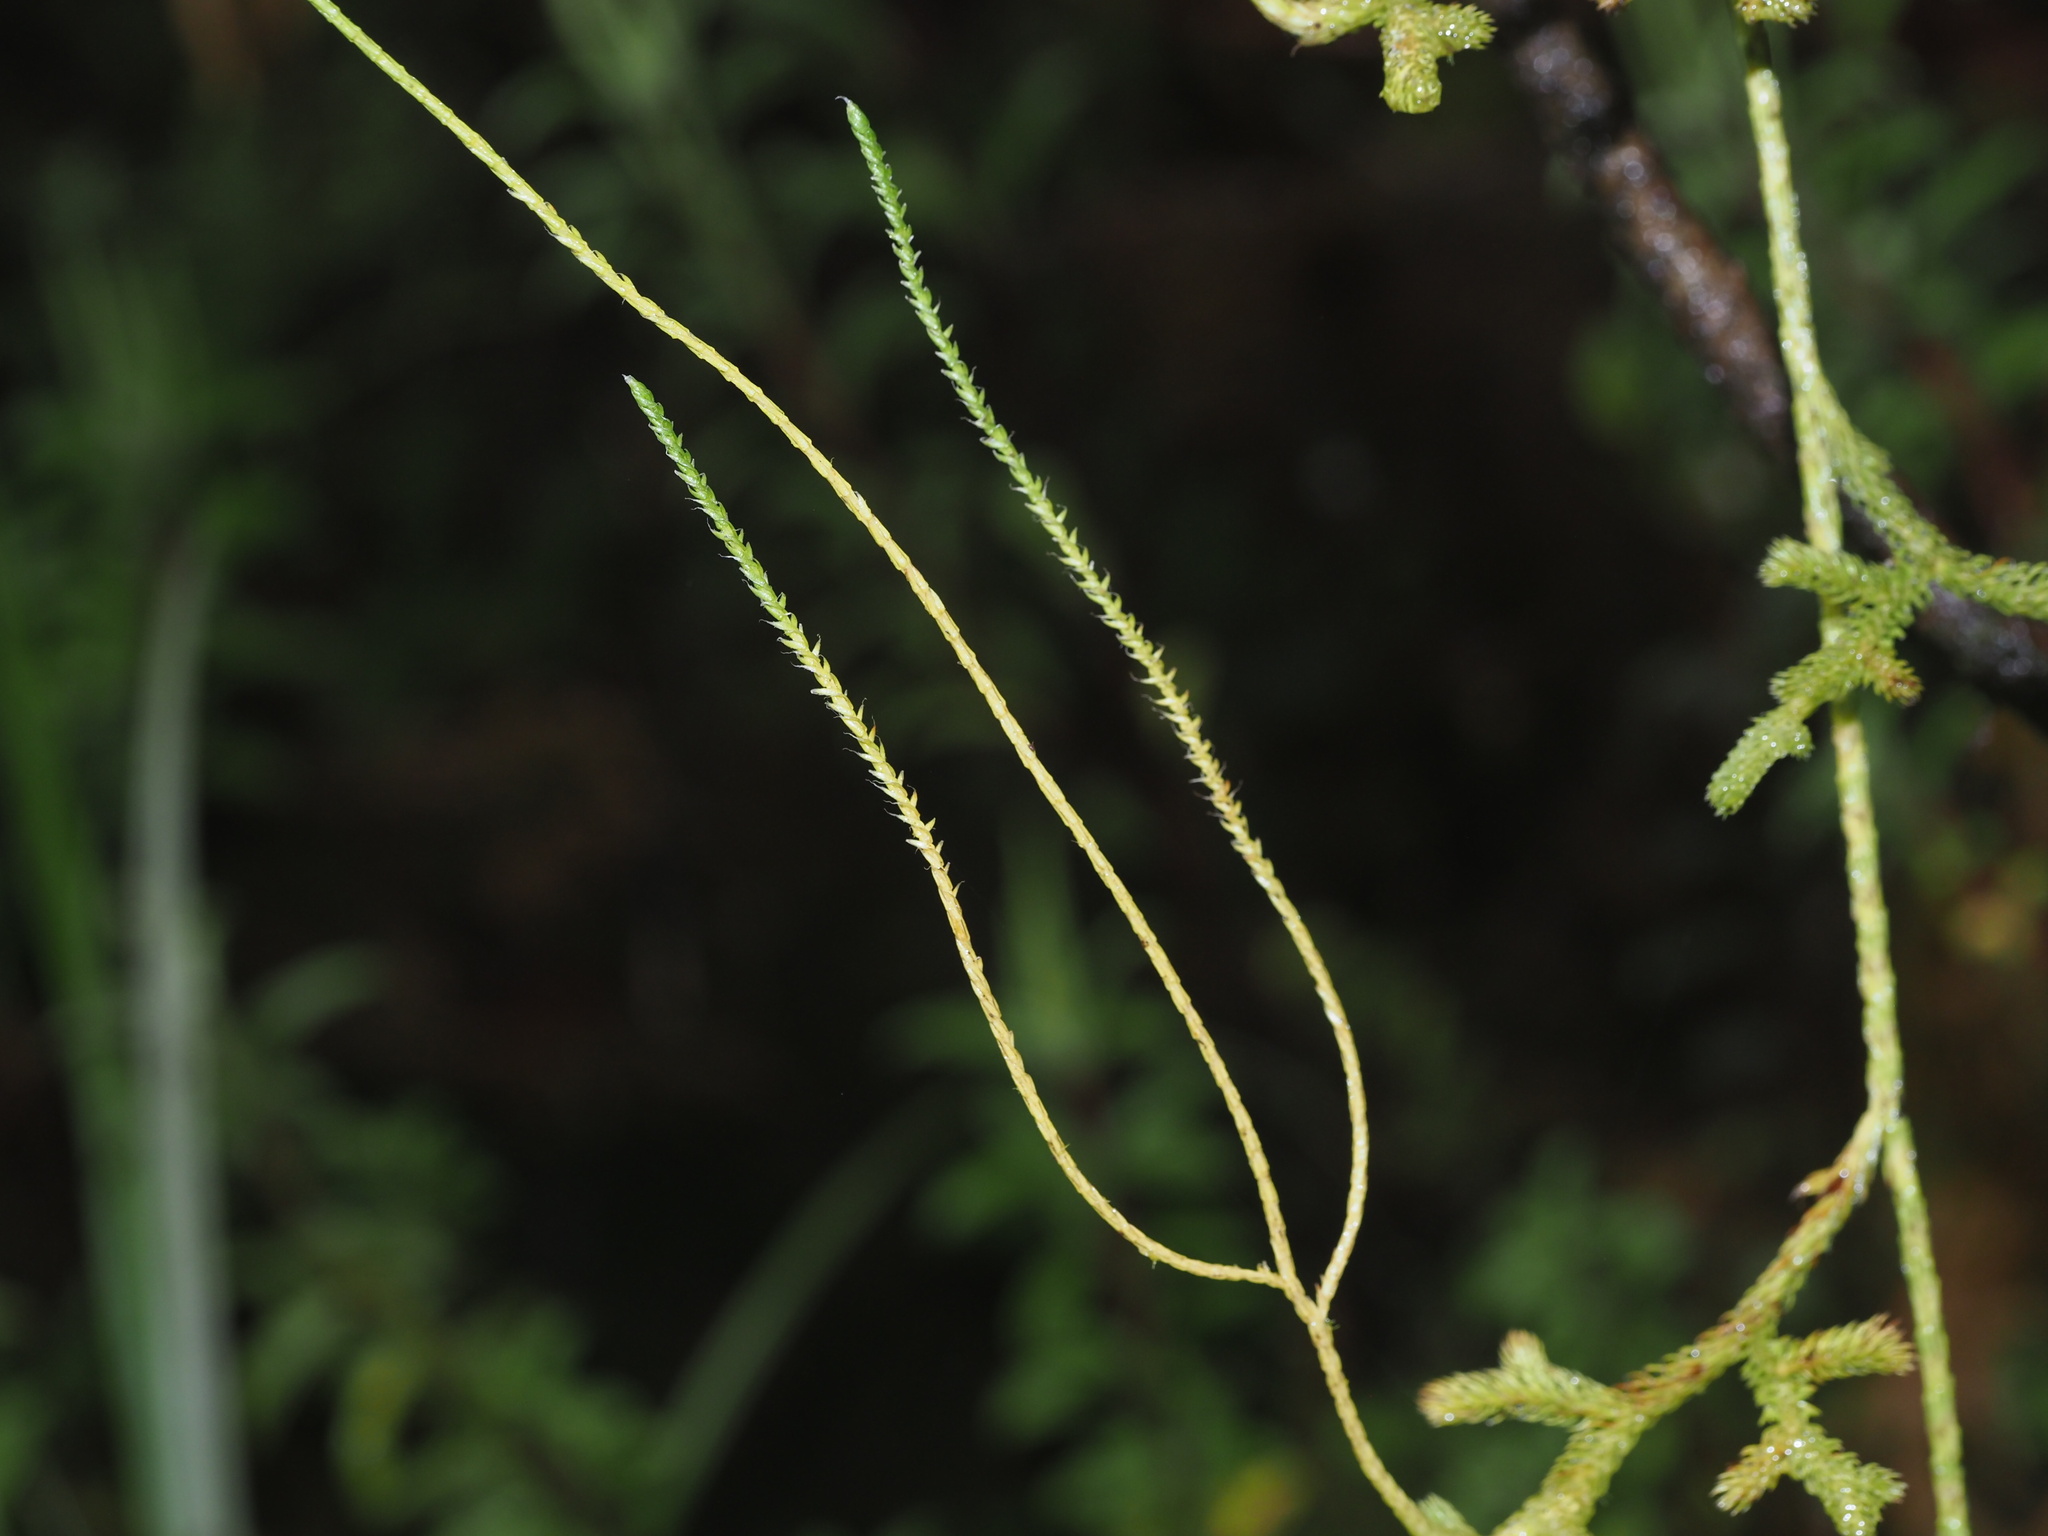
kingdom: Plantae
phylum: Tracheophyta
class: Lycopodiopsida
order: Lycopodiales
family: Lycopodiaceae
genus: Lycopodium
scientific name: Lycopodium venustulum
